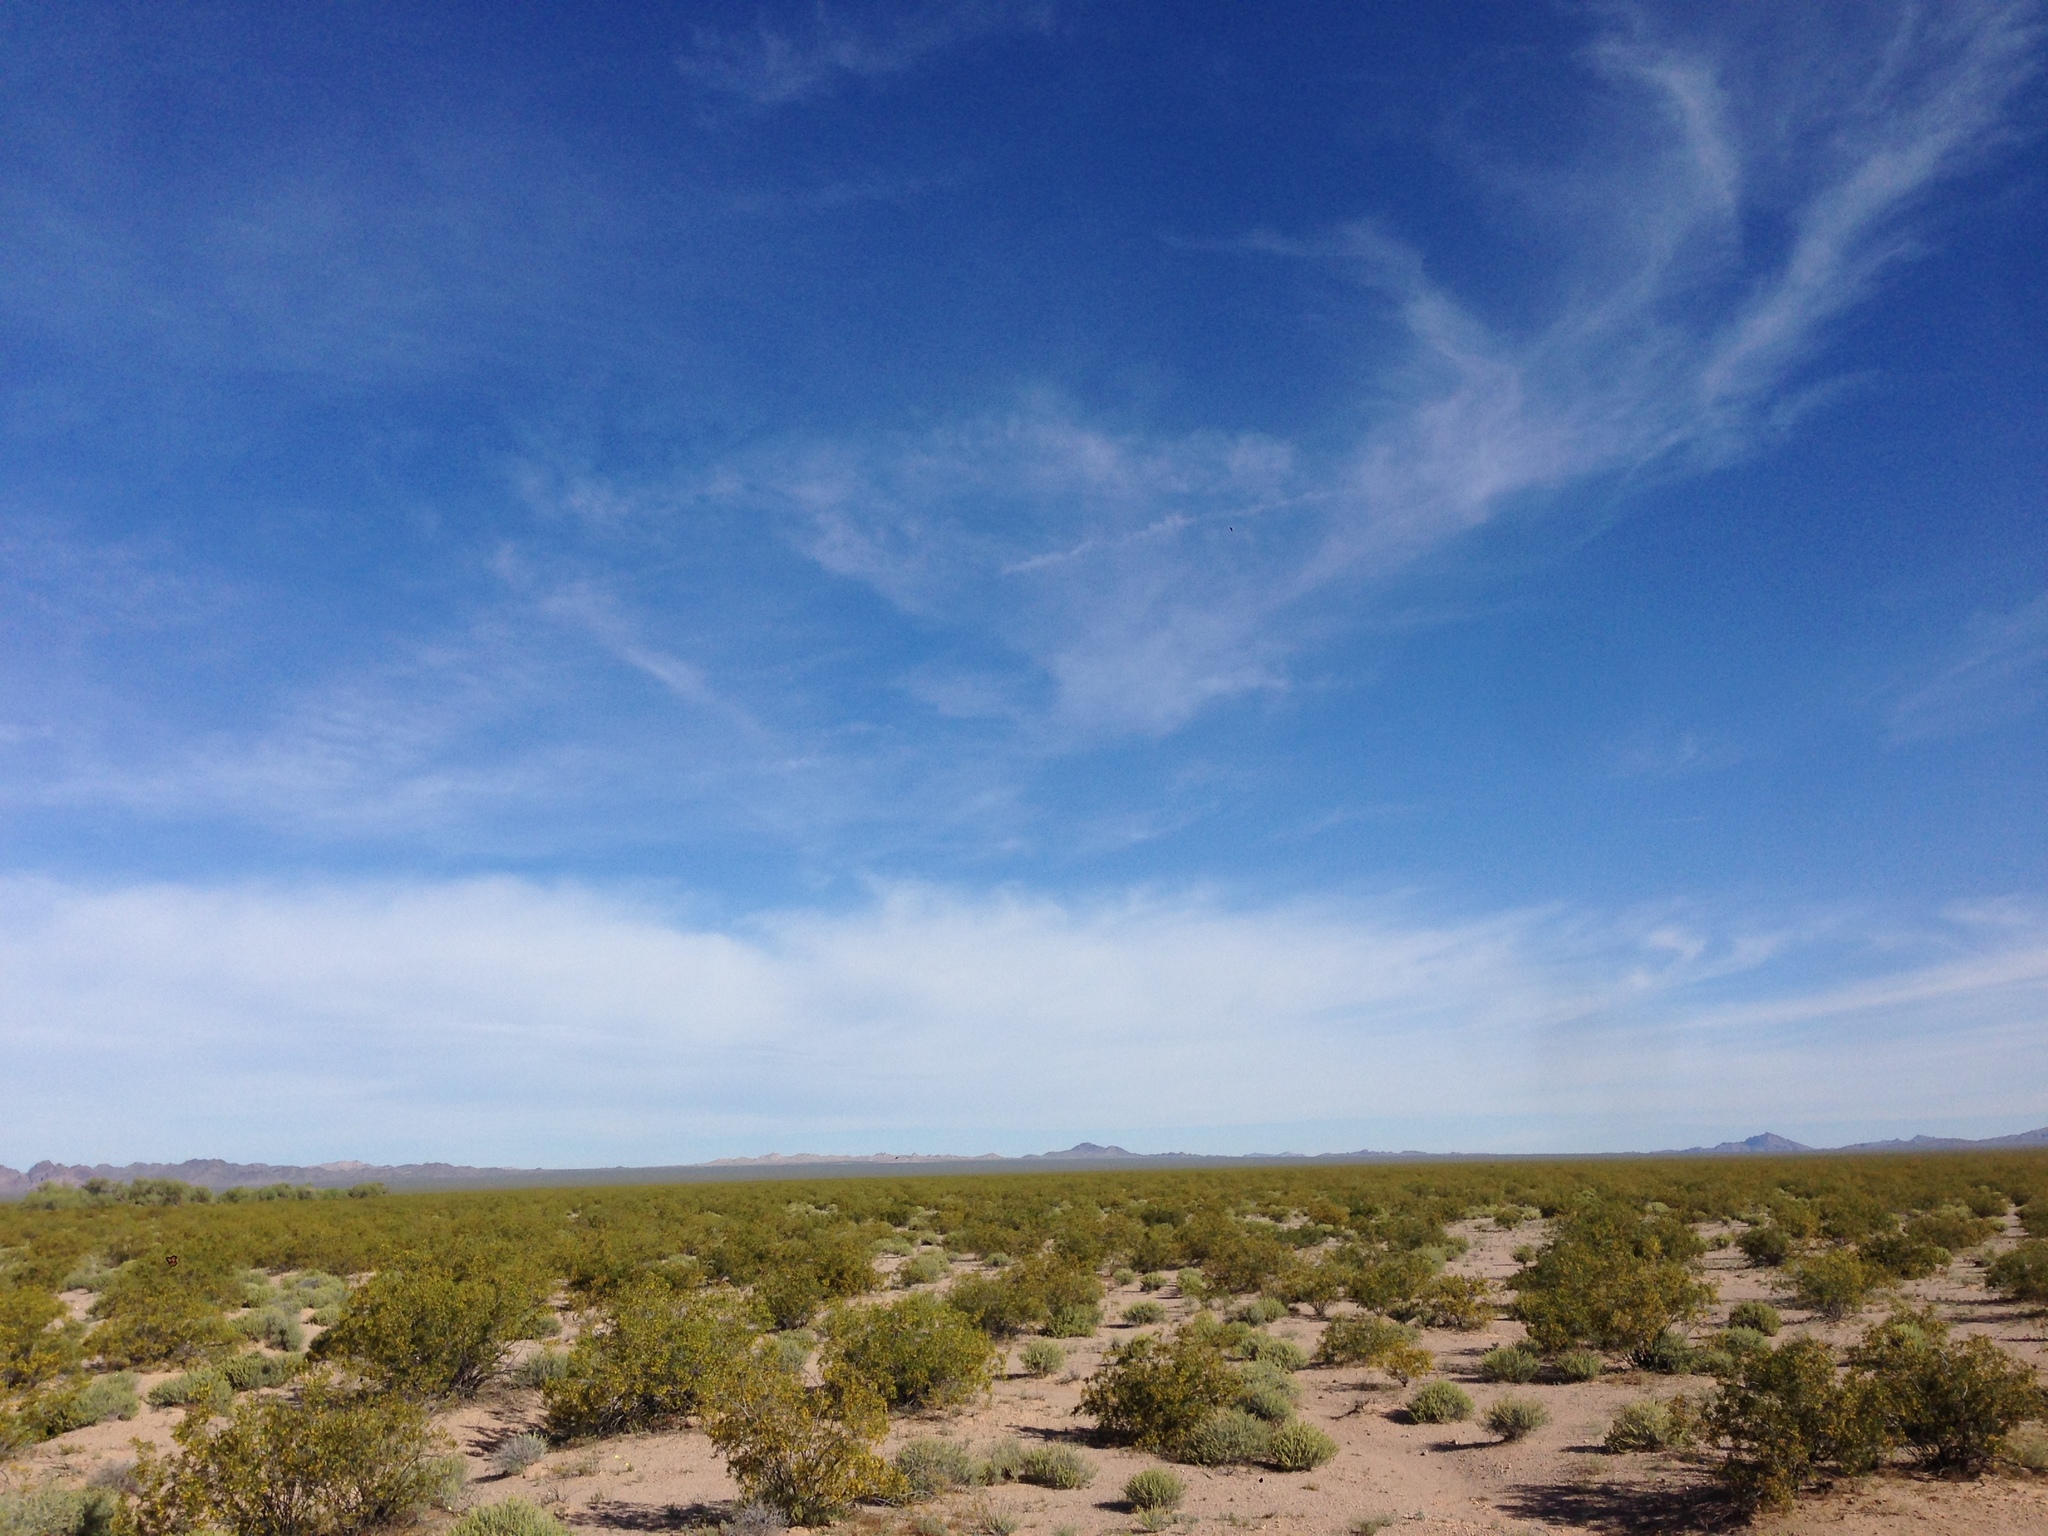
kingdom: Plantae
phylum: Tracheophyta
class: Magnoliopsida
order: Zygophyllales
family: Zygophyllaceae
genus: Larrea
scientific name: Larrea tridentata
